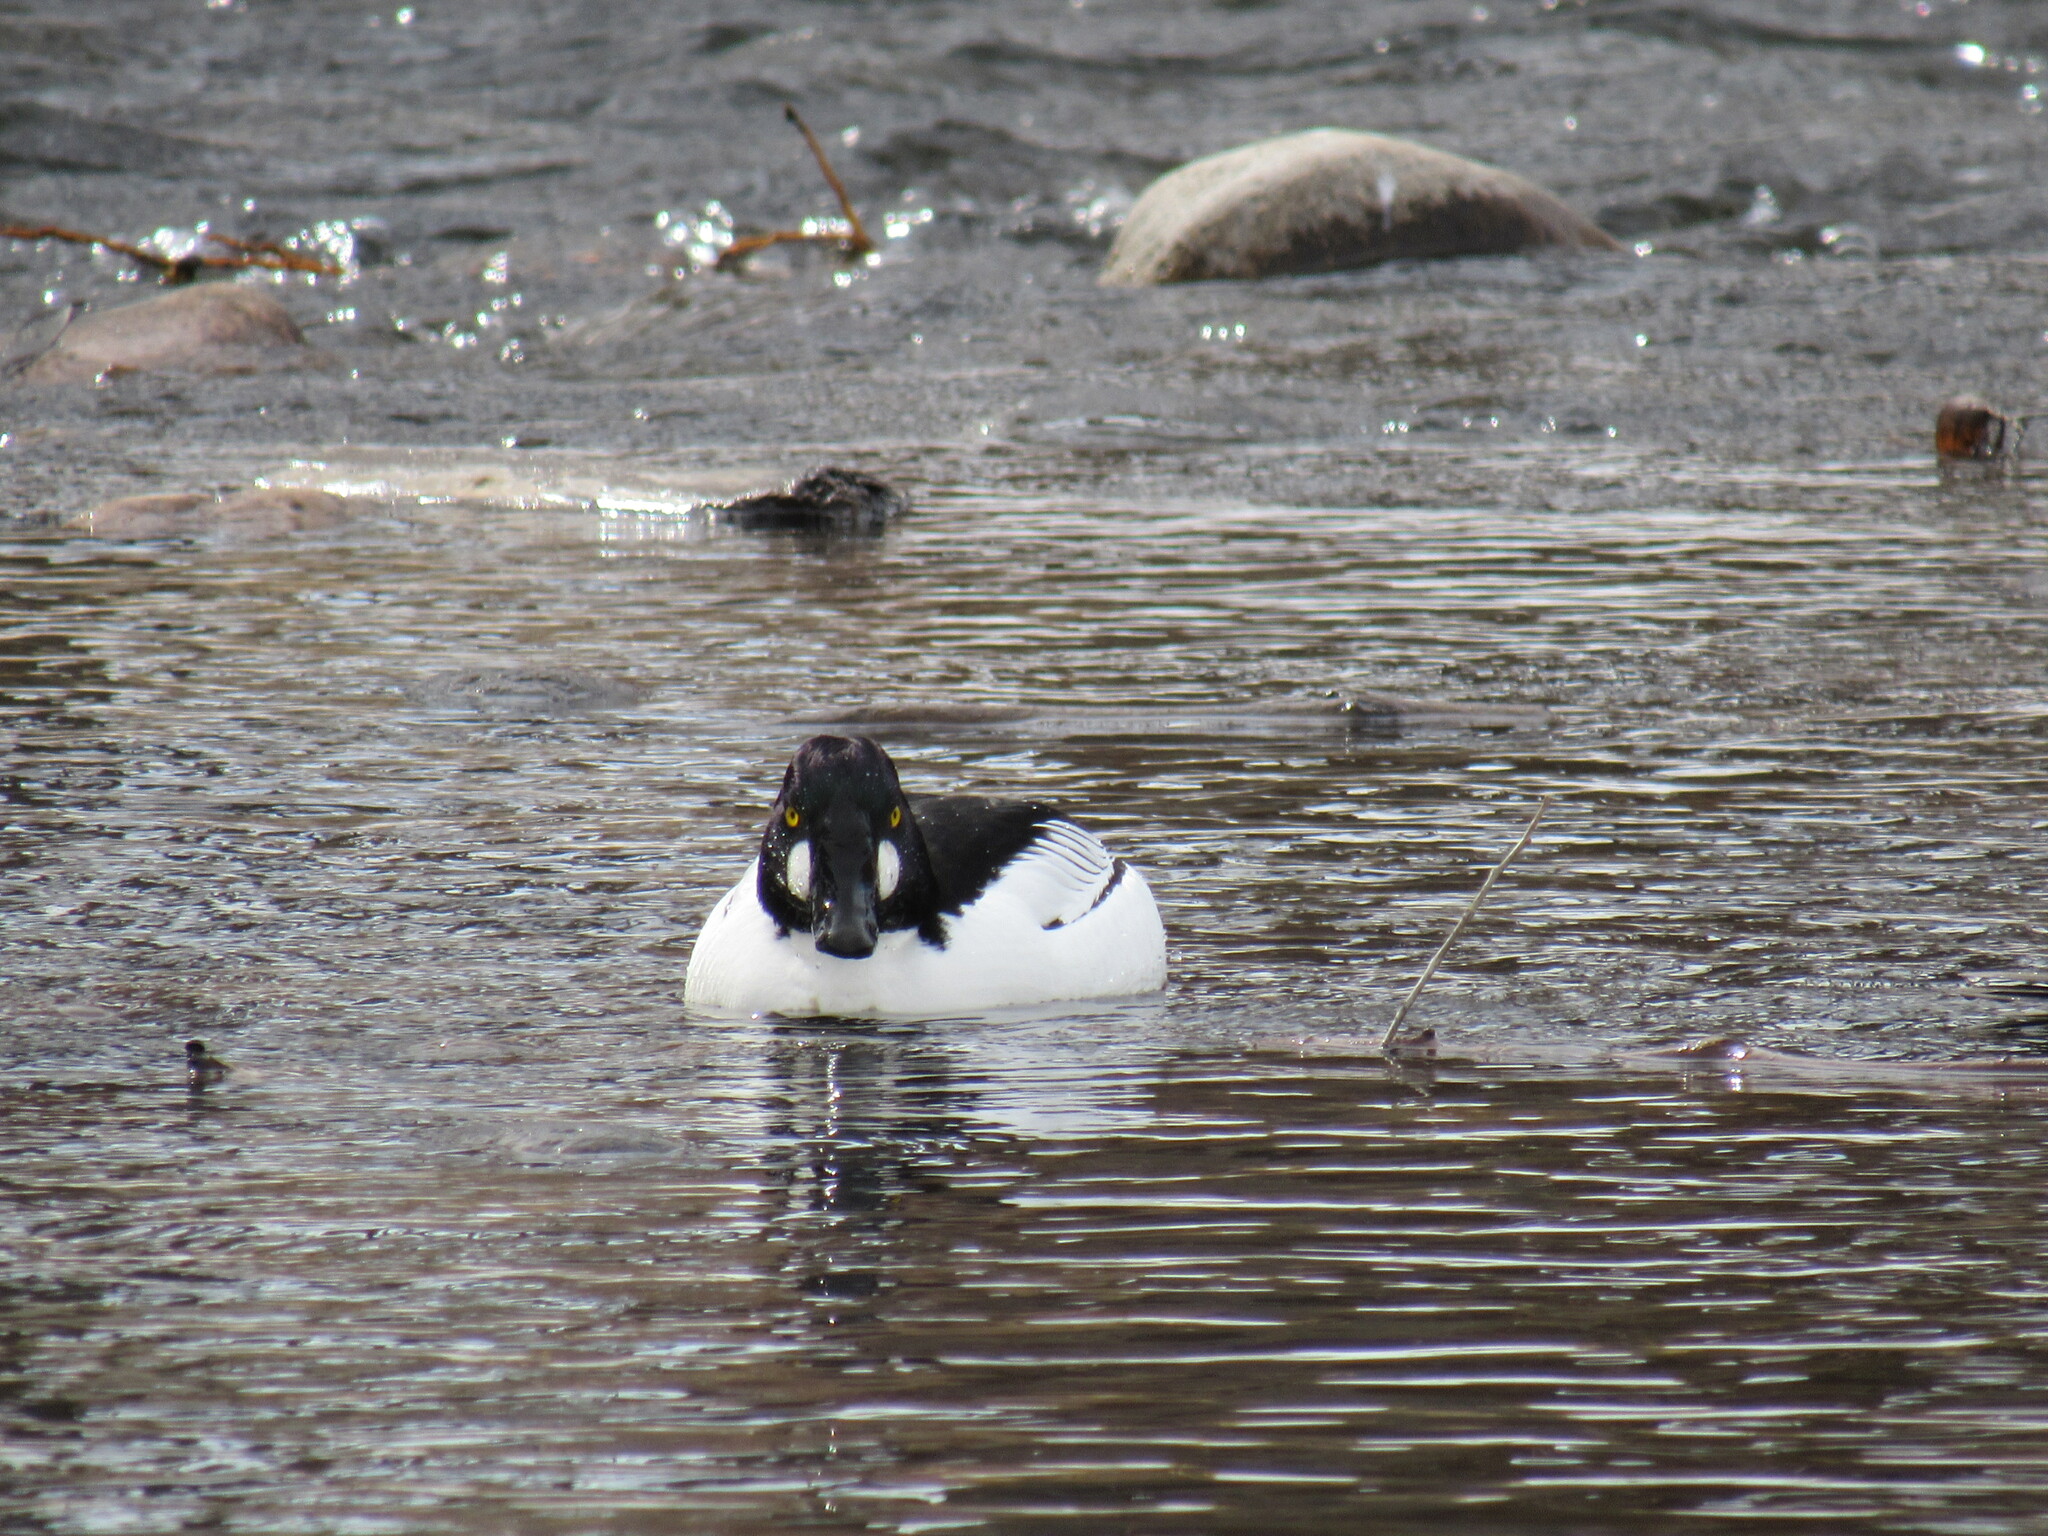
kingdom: Animalia
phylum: Chordata
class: Aves
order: Anseriformes
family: Anatidae
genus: Bucephala
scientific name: Bucephala clangula
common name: Common goldeneye
